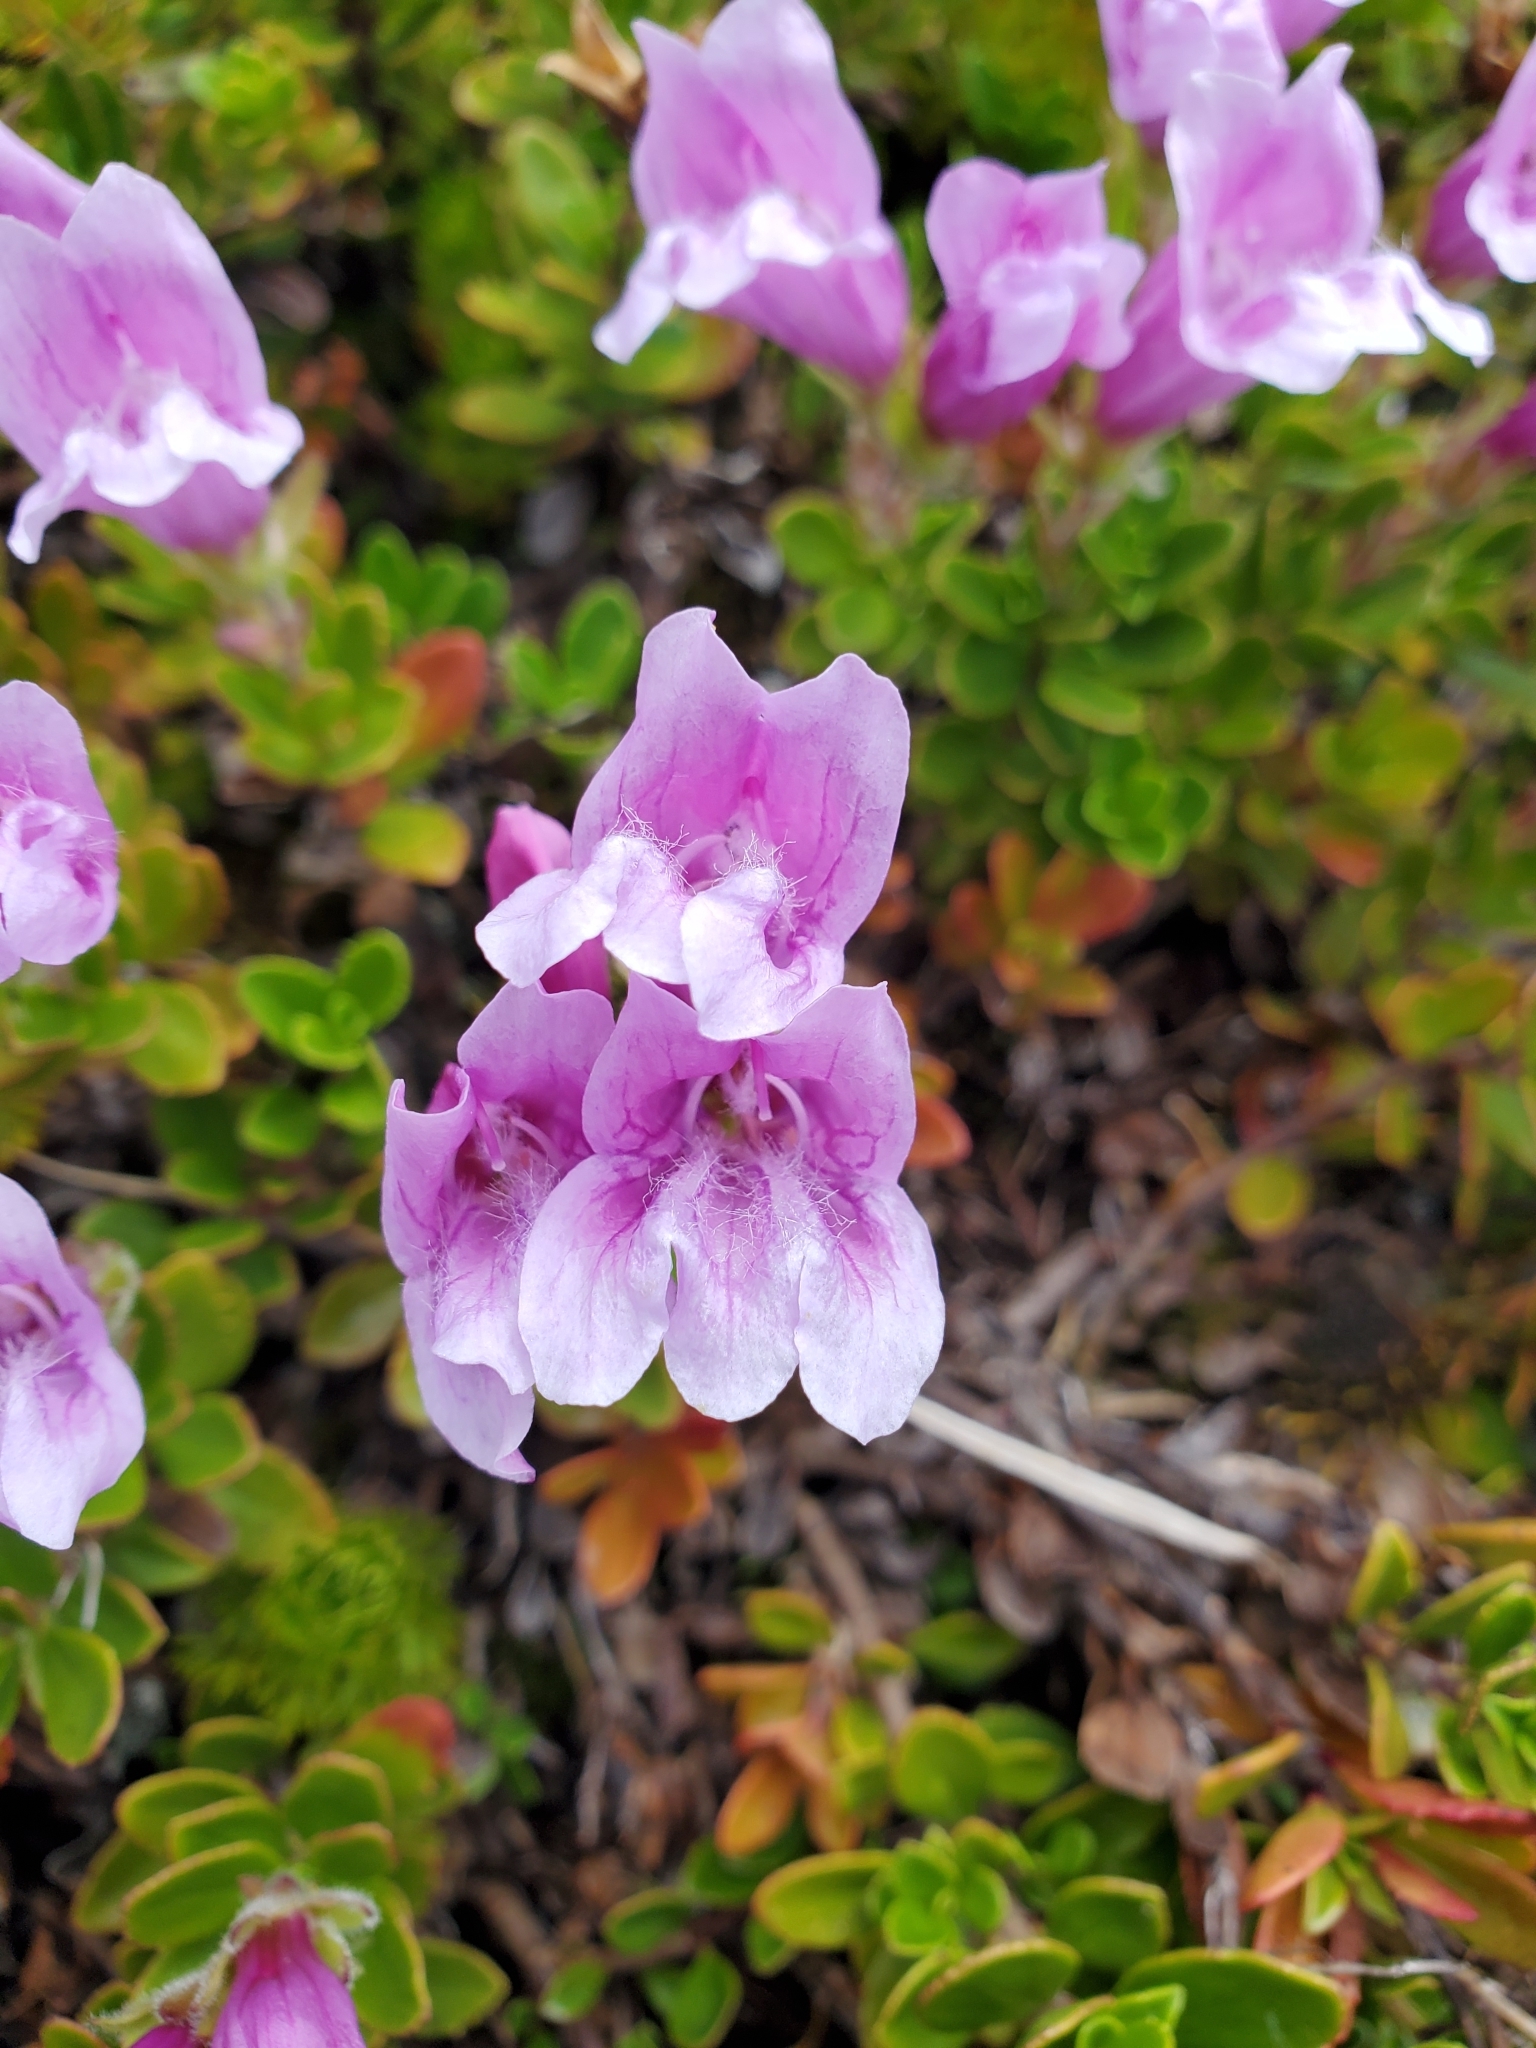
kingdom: Plantae
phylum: Tracheophyta
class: Magnoliopsida
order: Lamiales
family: Plantaginaceae
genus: Penstemon
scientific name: Penstemon davidsonii
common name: Davidson's penstemon
